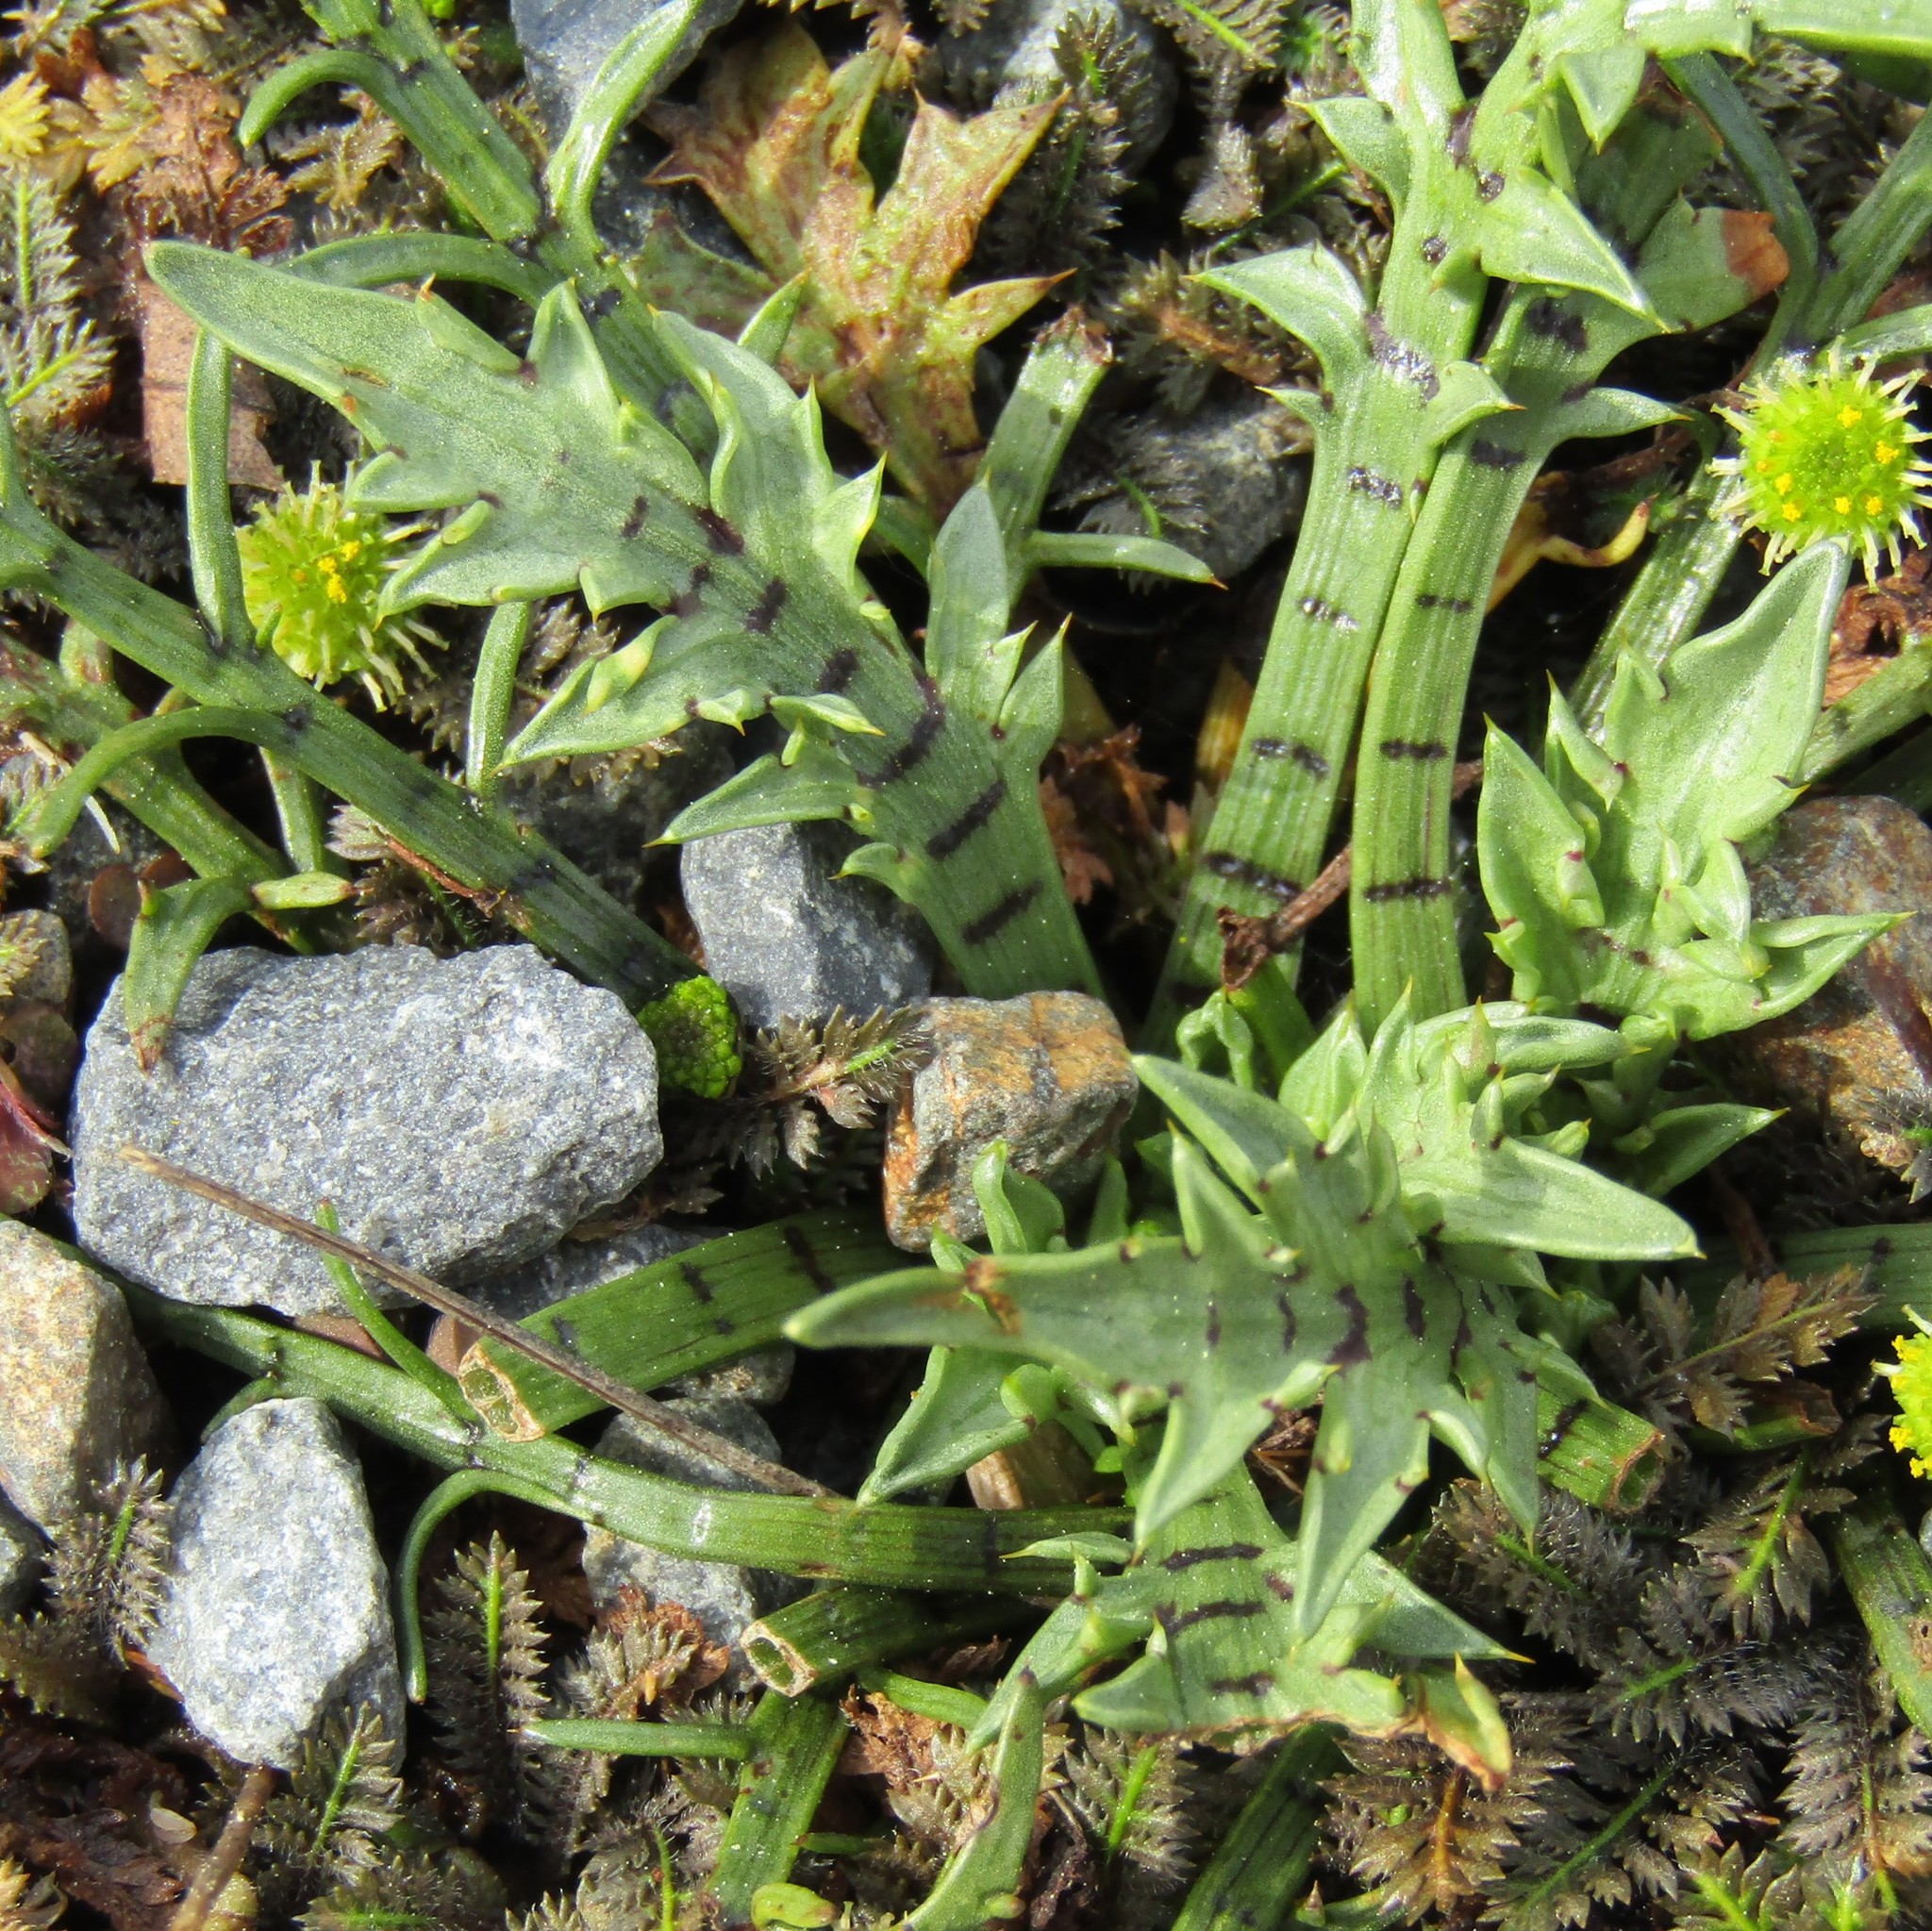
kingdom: Plantae
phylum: Tracheophyta
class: Magnoliopsida
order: Apiales
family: Apiaceae
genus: Eryngium
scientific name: Eryngium vesiculosum
